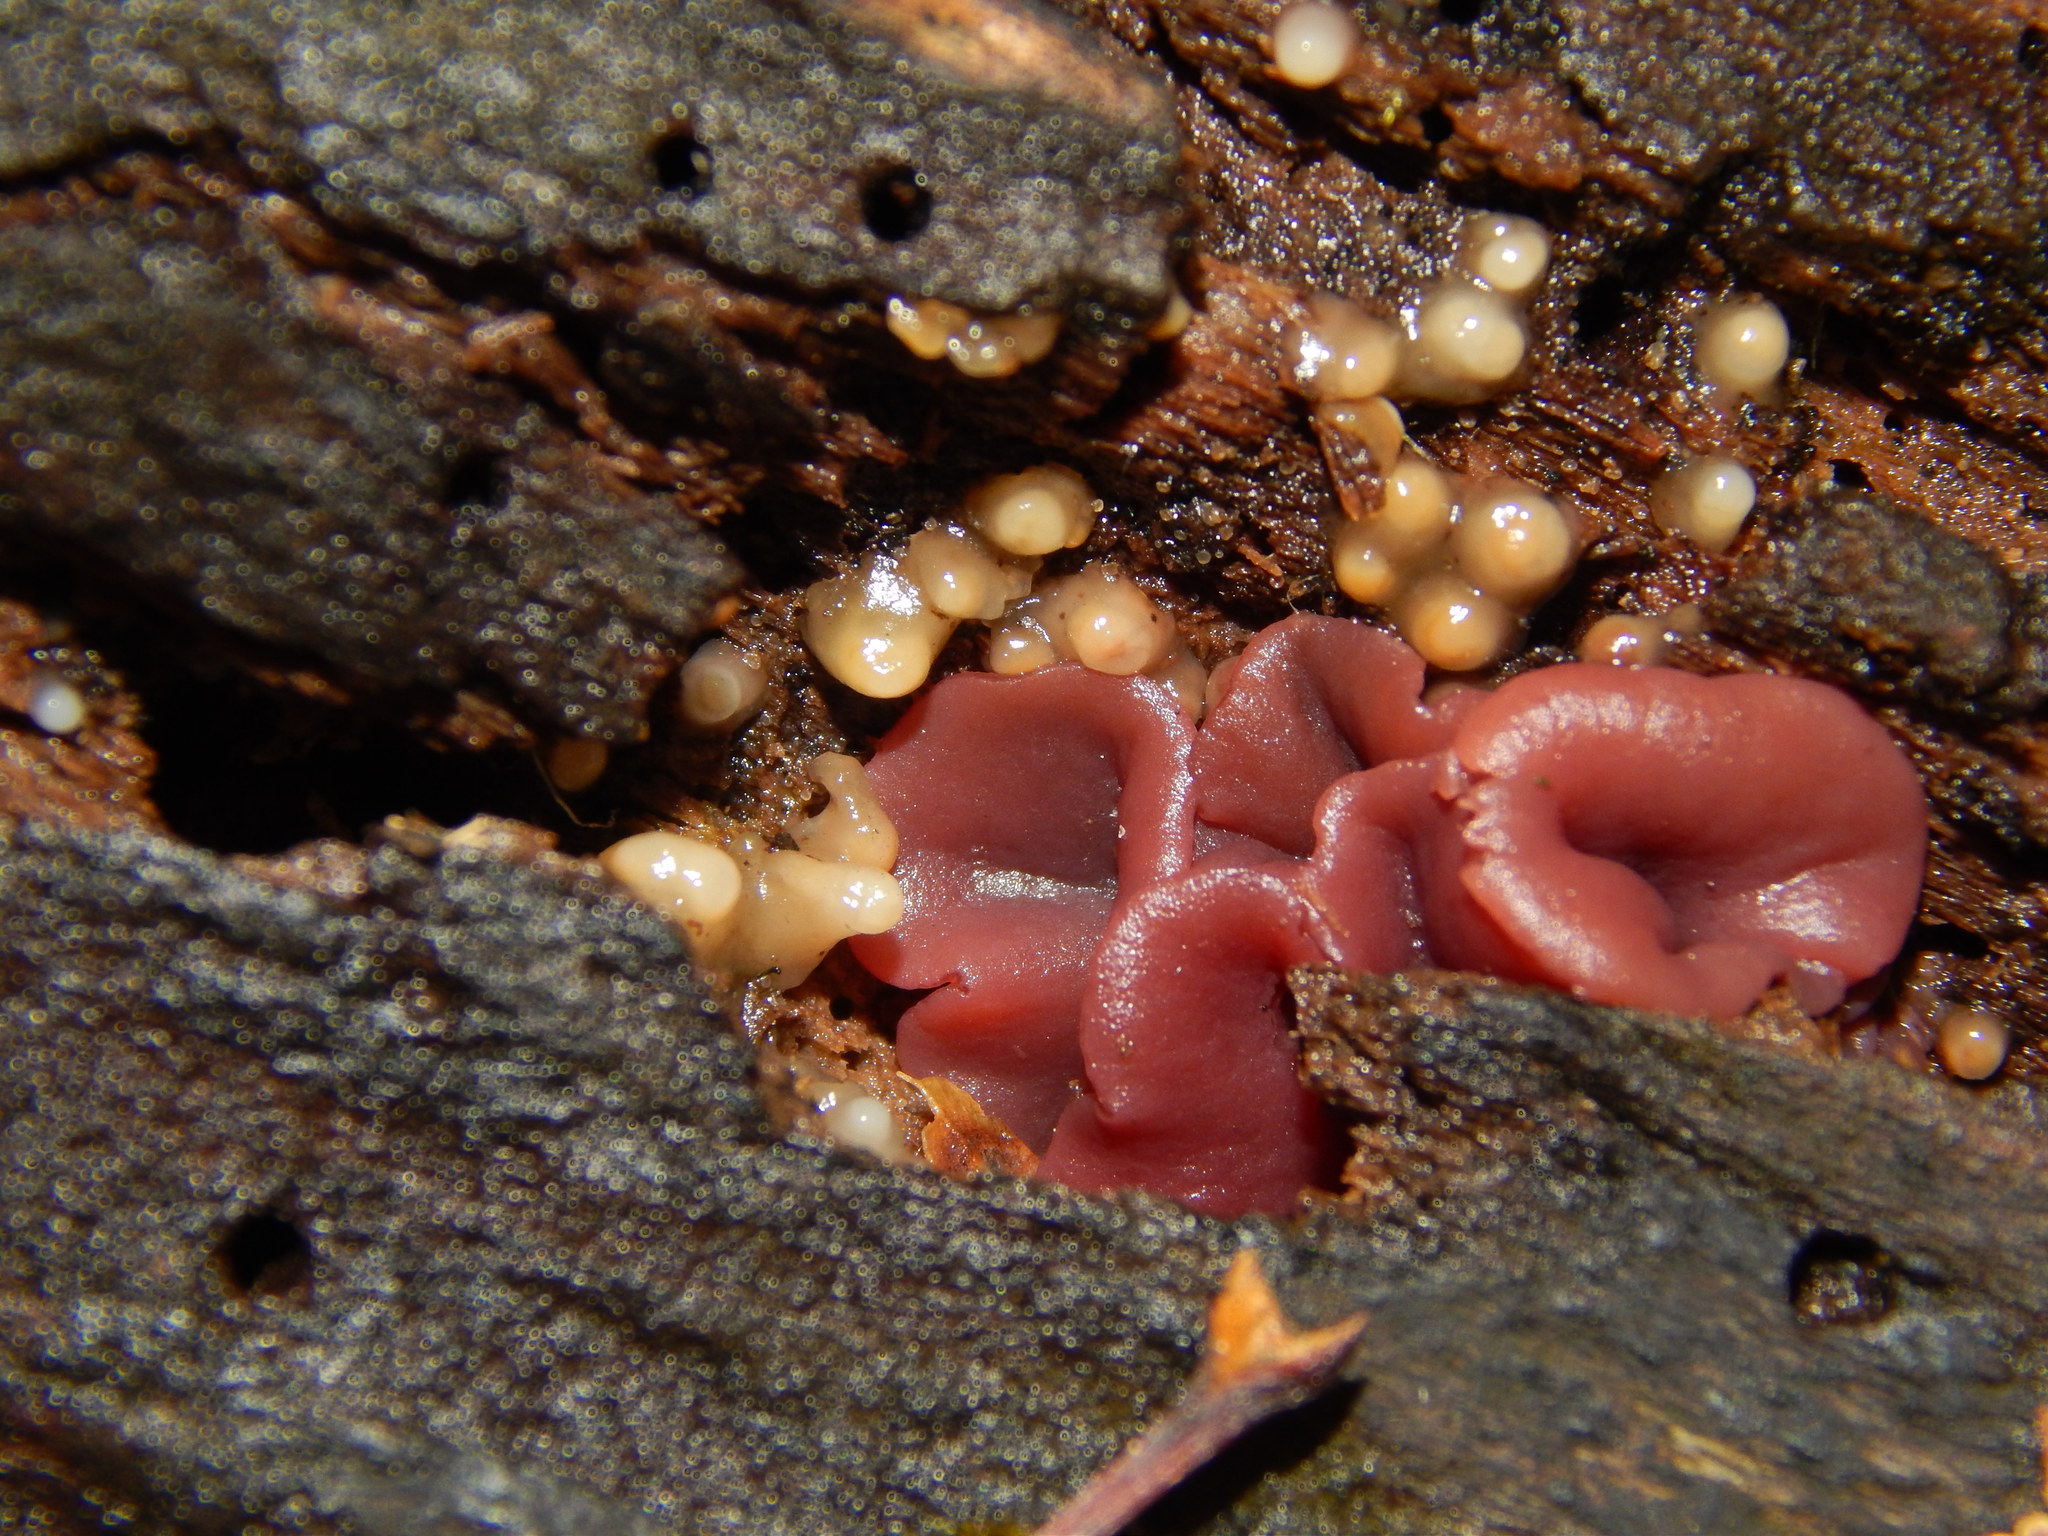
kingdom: Fungi
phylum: Ascomycota
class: Leotiomycetes
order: Helotiales
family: Gelatinodiscaceae
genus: Ascocoryne
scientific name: Ascocoryne sarcoides
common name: Purple jellydisc
